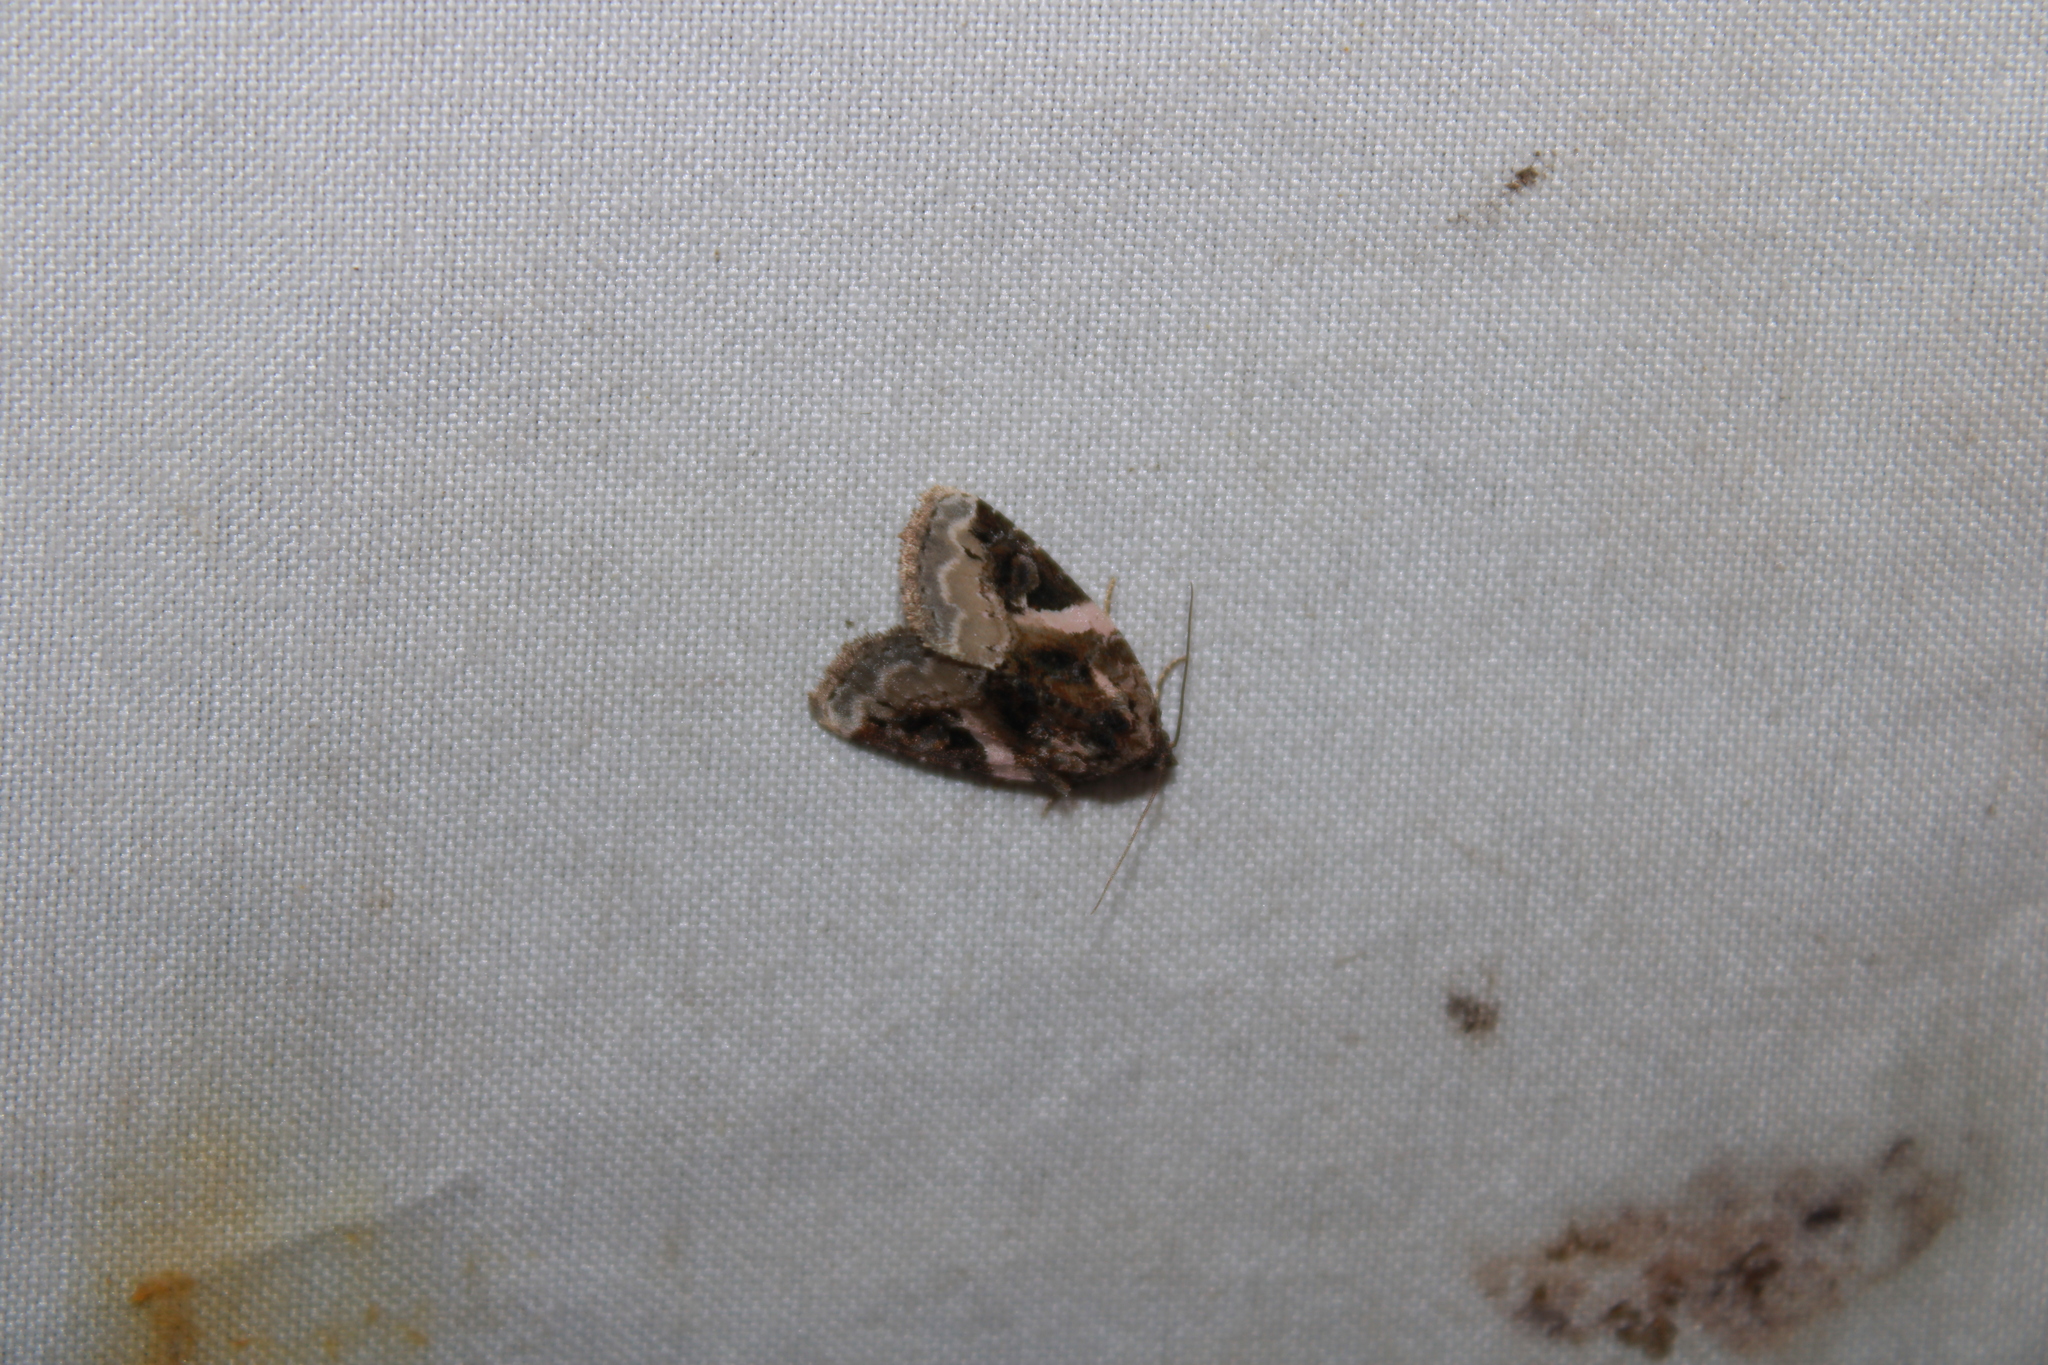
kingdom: Animalia
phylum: Arthropoda
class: Insecta
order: Lepidoptera
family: Noctuidae
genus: Pseudeustrotia
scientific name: Pseudeustrotia carneola
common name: Pink-barred lithacodia moth
